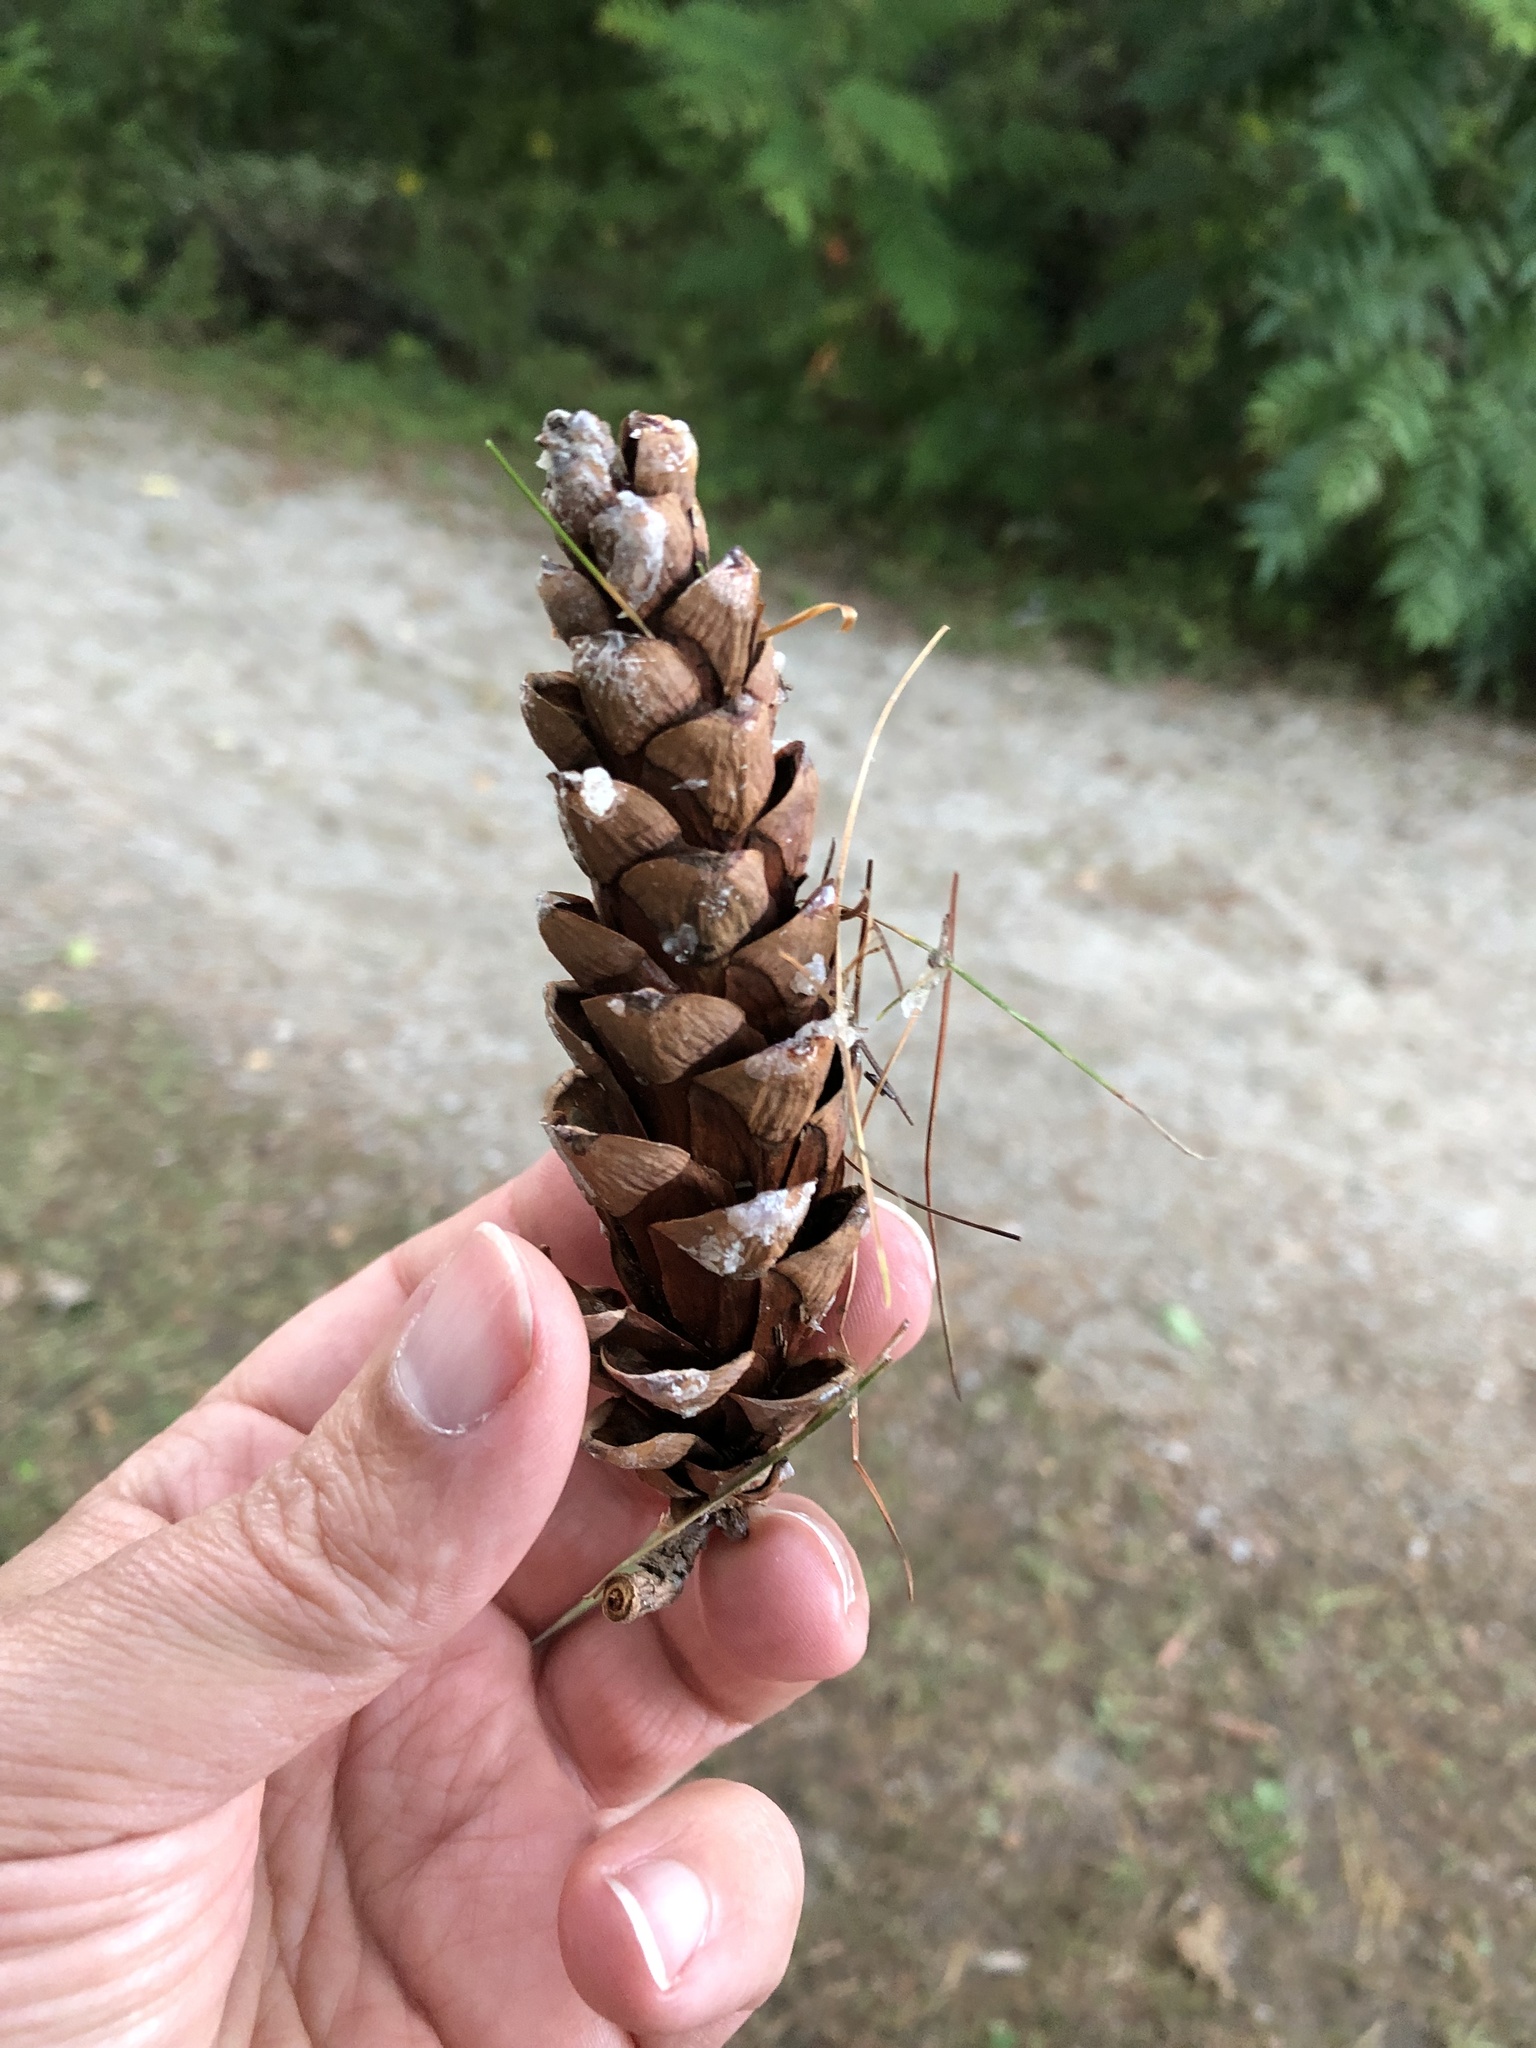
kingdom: Plantae
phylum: Tracheophyta
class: Pinopsida
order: Pinales
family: Pinaceae
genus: Pinus
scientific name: Pinus strobus
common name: Weymouth pine
